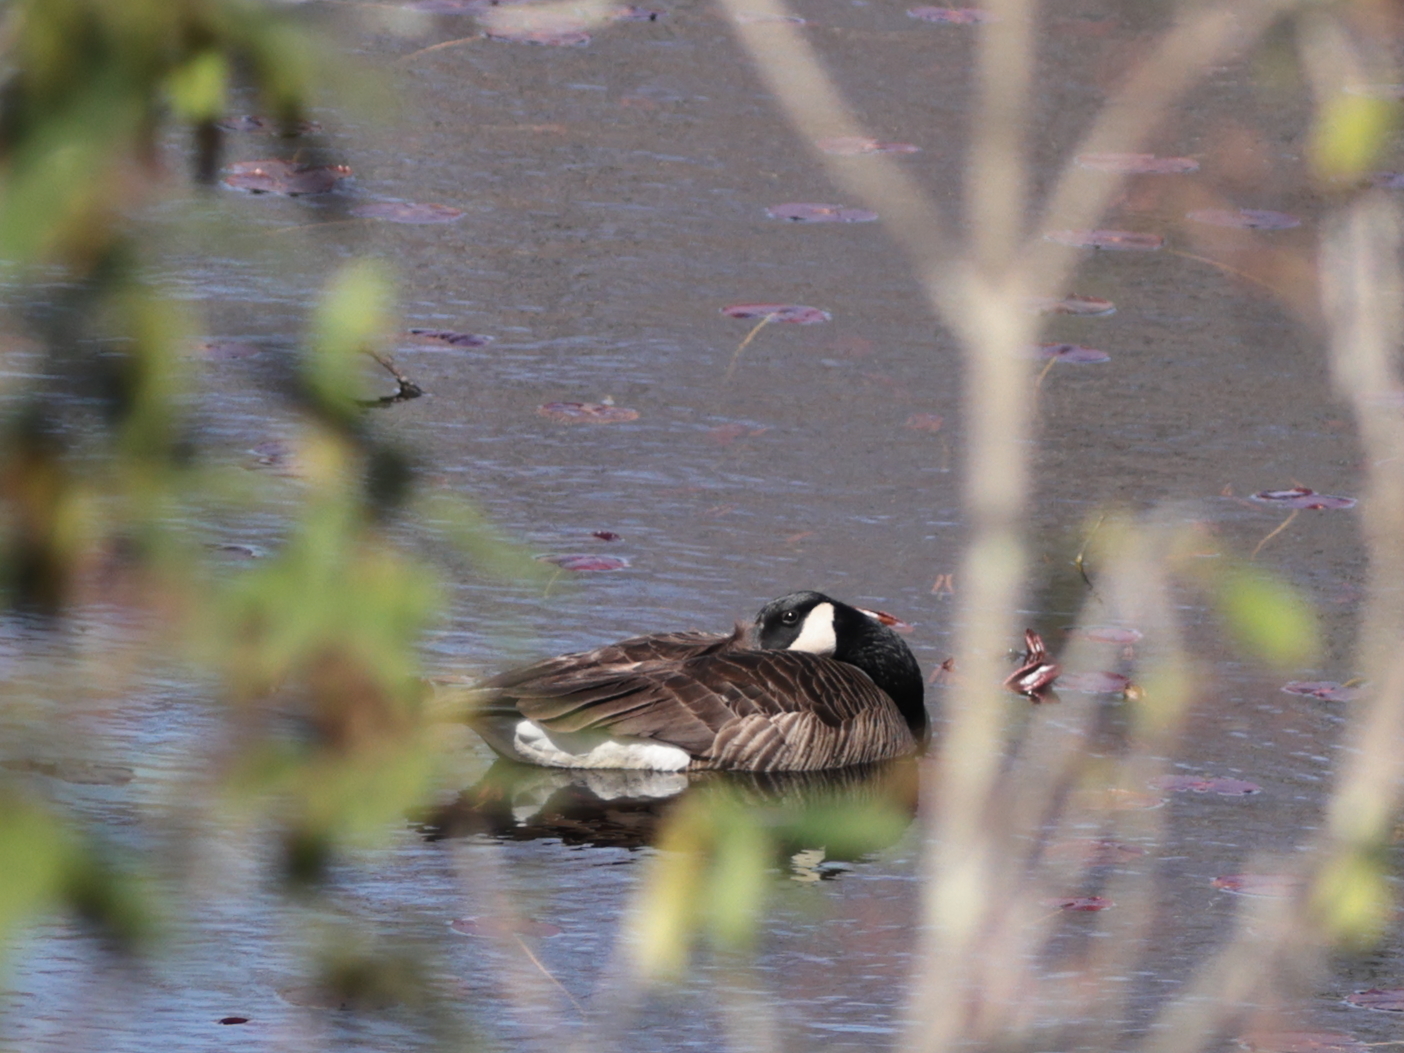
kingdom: Animalia
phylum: Chordata
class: Aves
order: Anseriformes
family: Anatidae
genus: Branta
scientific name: Branta canadensis
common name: Canada goose
